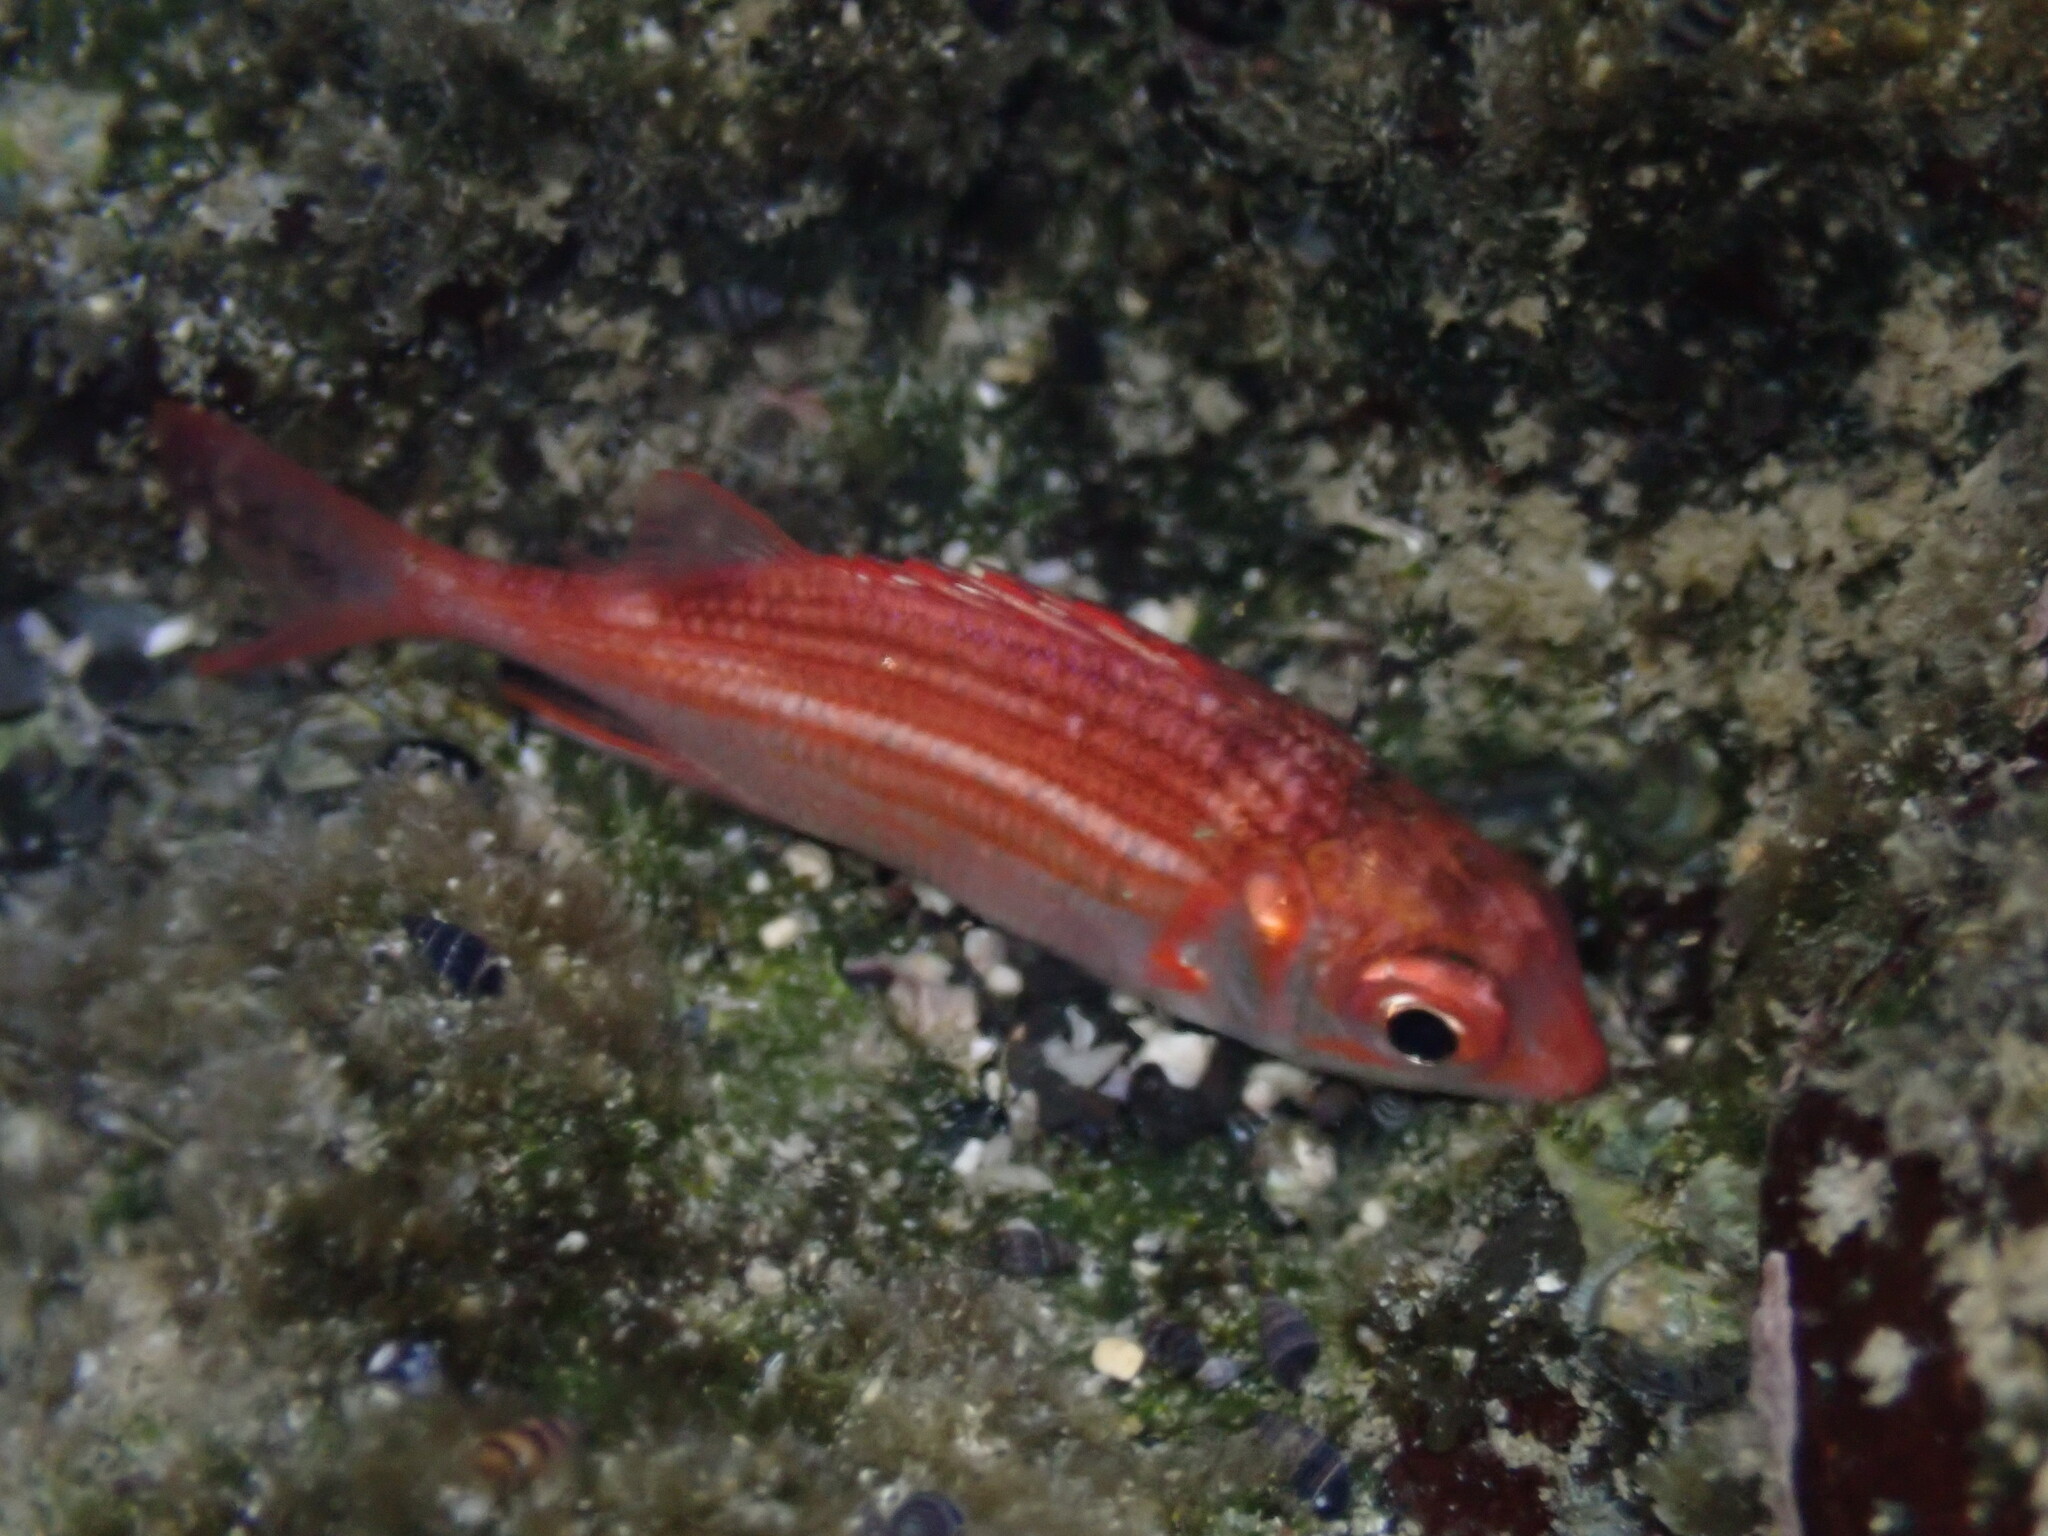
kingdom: Animalia
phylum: Chordata
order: Beryciformes
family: Holocentridae
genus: Sargocentron
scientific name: Sargocentron punctatissimum
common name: Peppered squirrelfish
